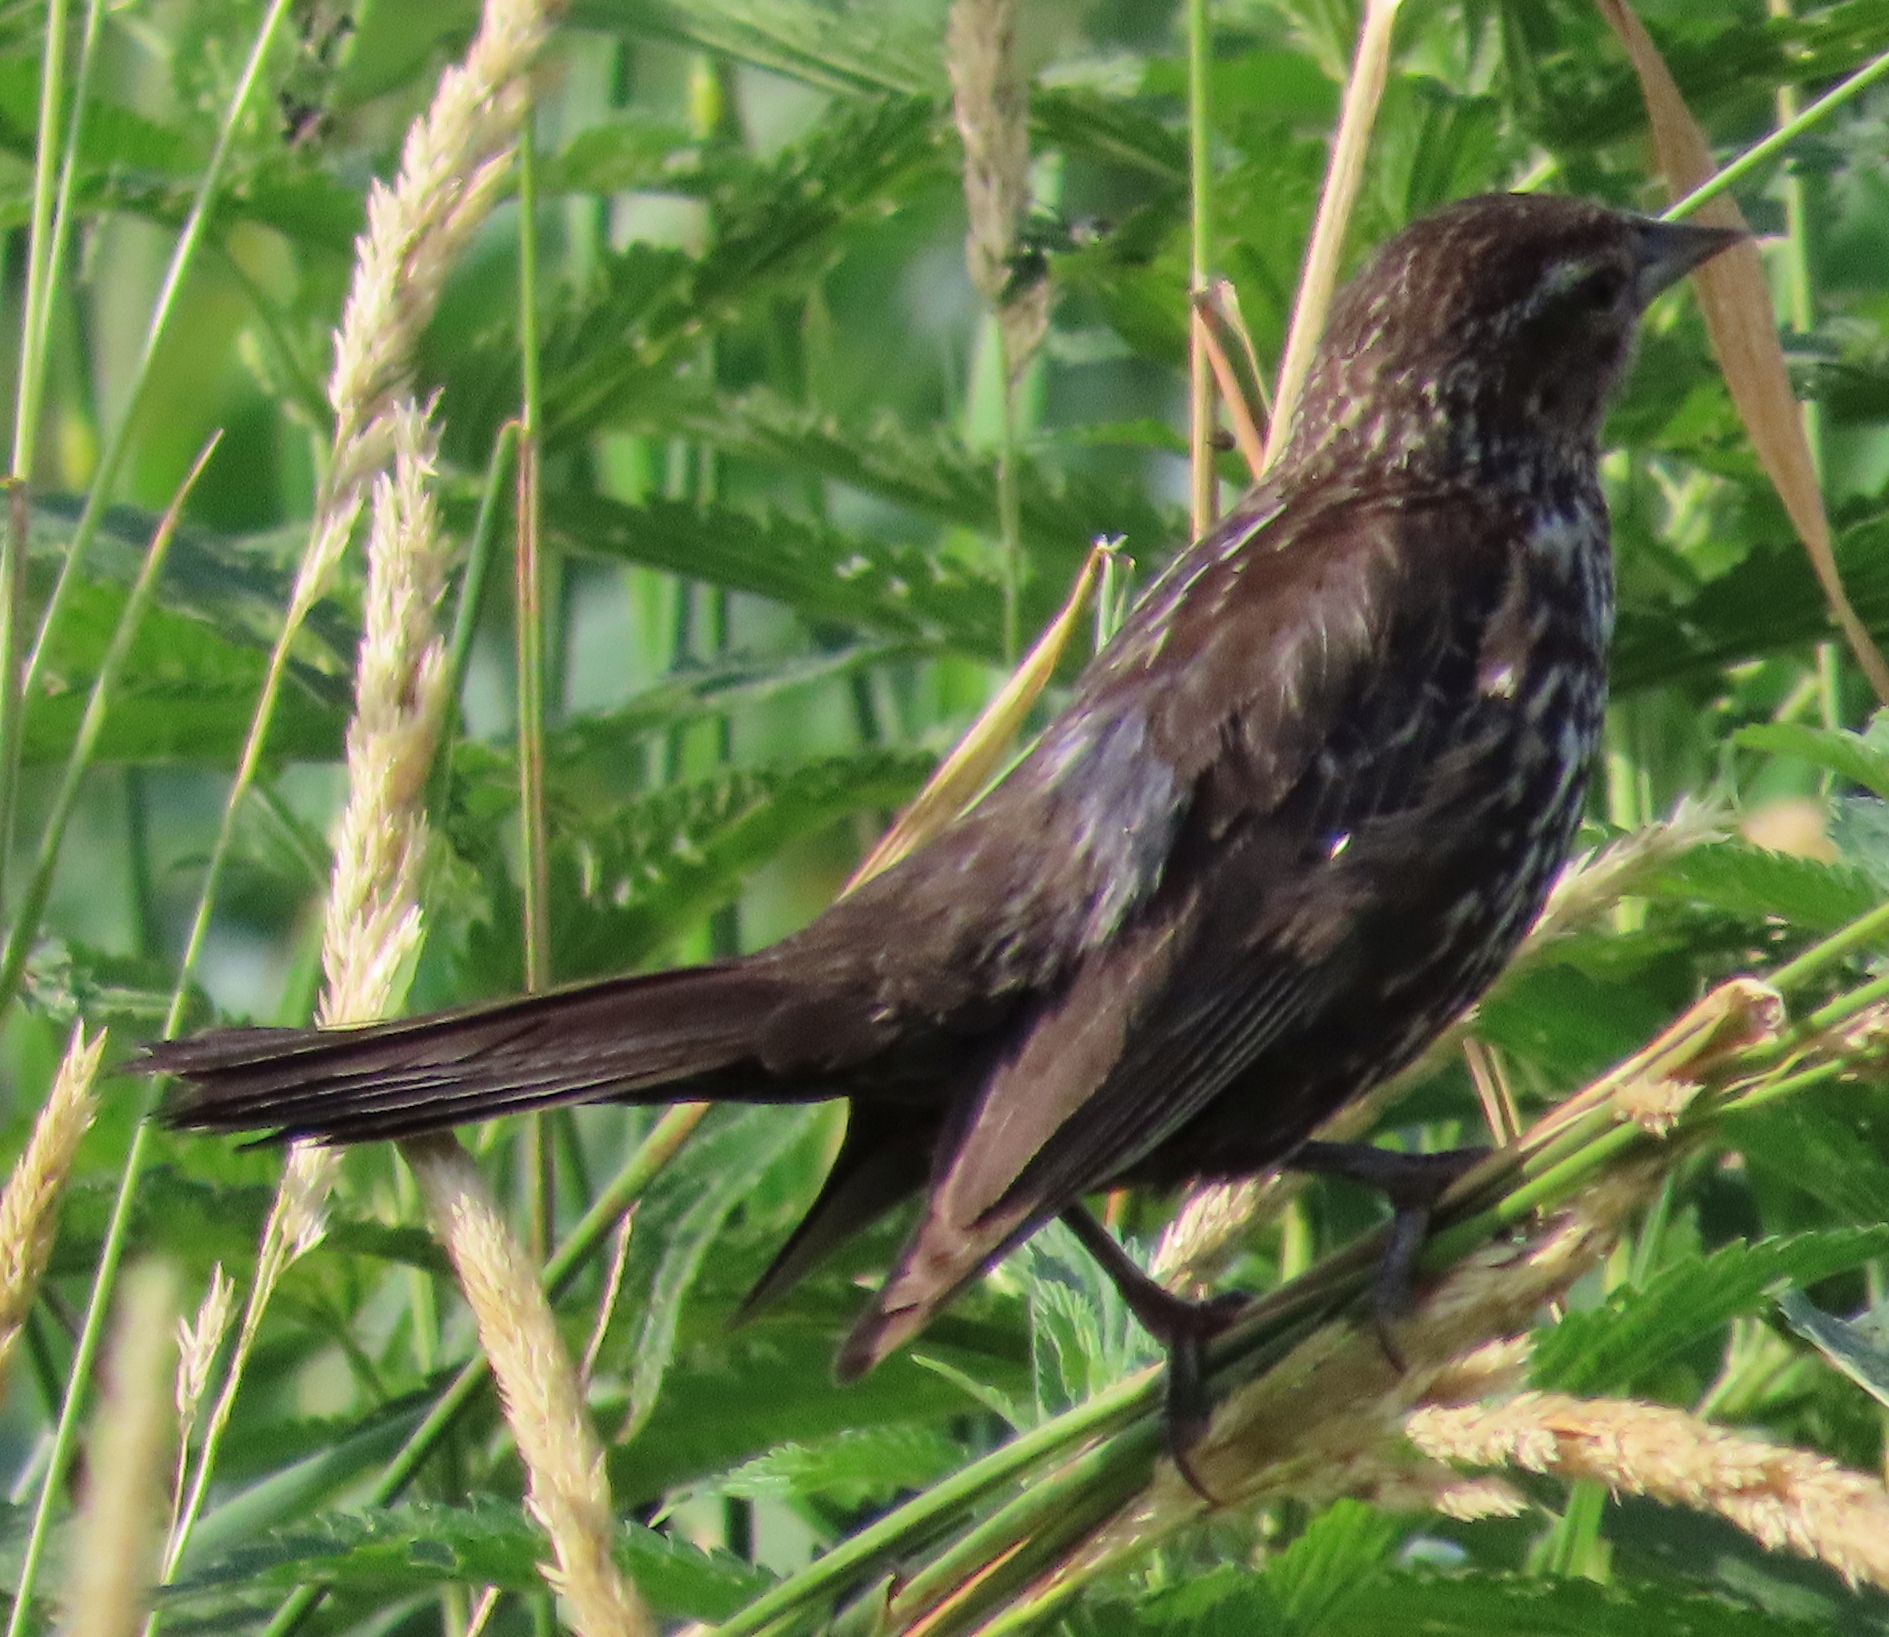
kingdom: Animalia
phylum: Chordata
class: Aves
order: Passeriformes
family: Icteridae
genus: Agelaius
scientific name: Agelaius phoeniceus
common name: Red-winged blackbird
